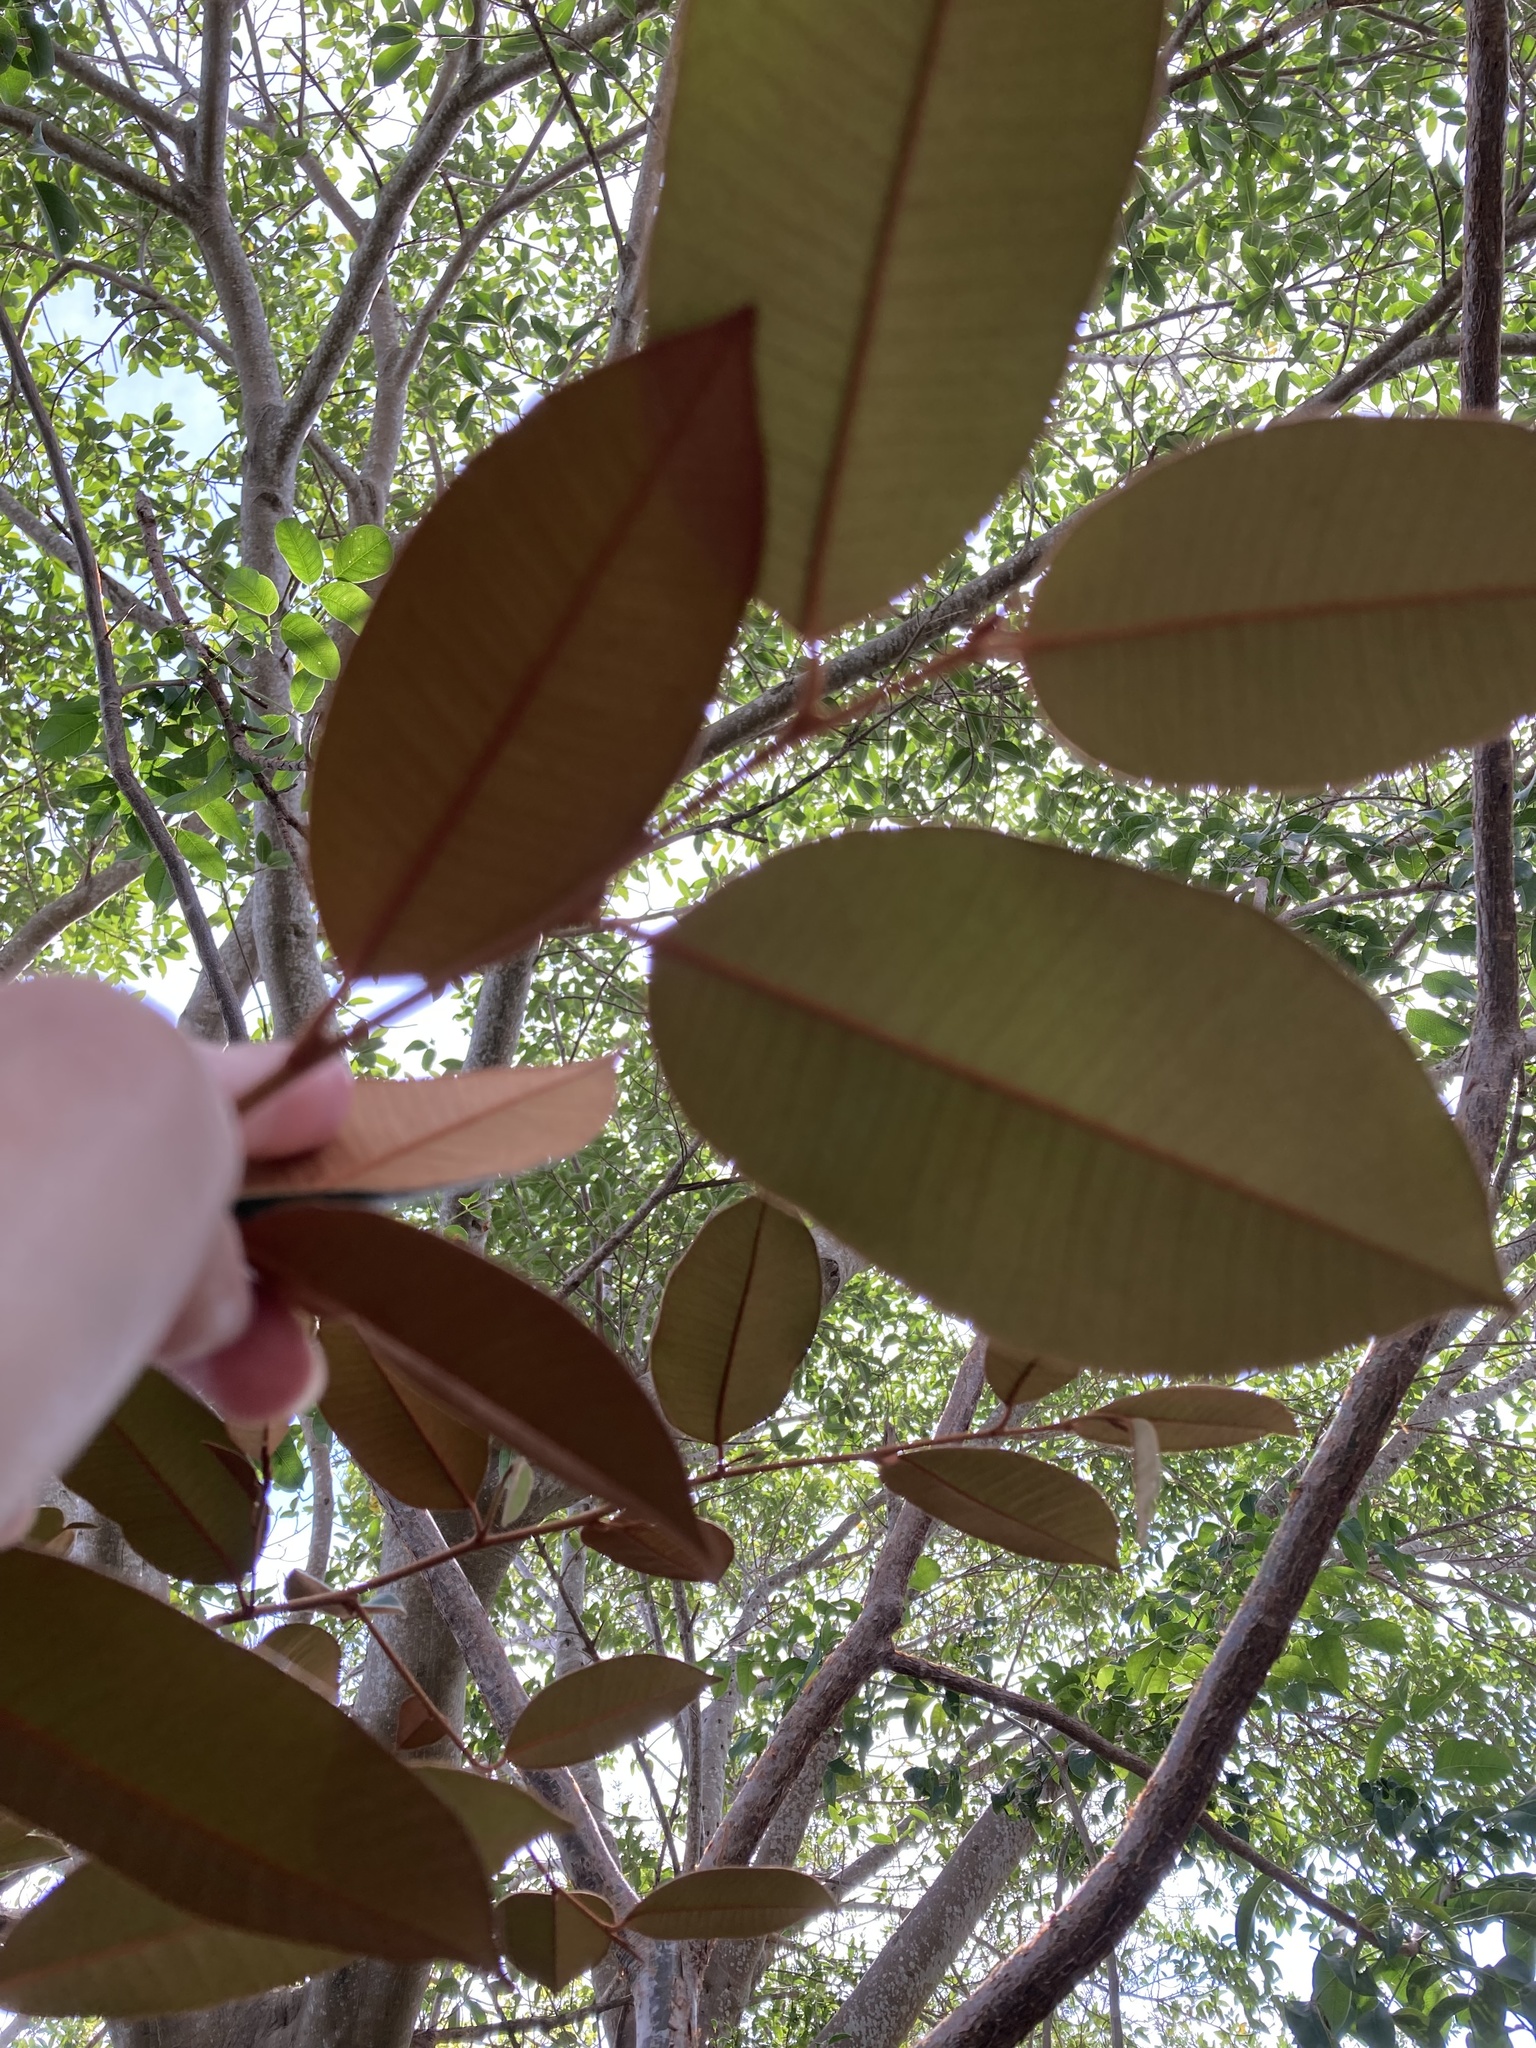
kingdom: Plantae
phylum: Tracheophyta
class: Magnoliopsida
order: Ericales
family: Sapotaceae
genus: Chrysophyllum
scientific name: Chrysophyllum oliviforme
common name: Satinleaf
